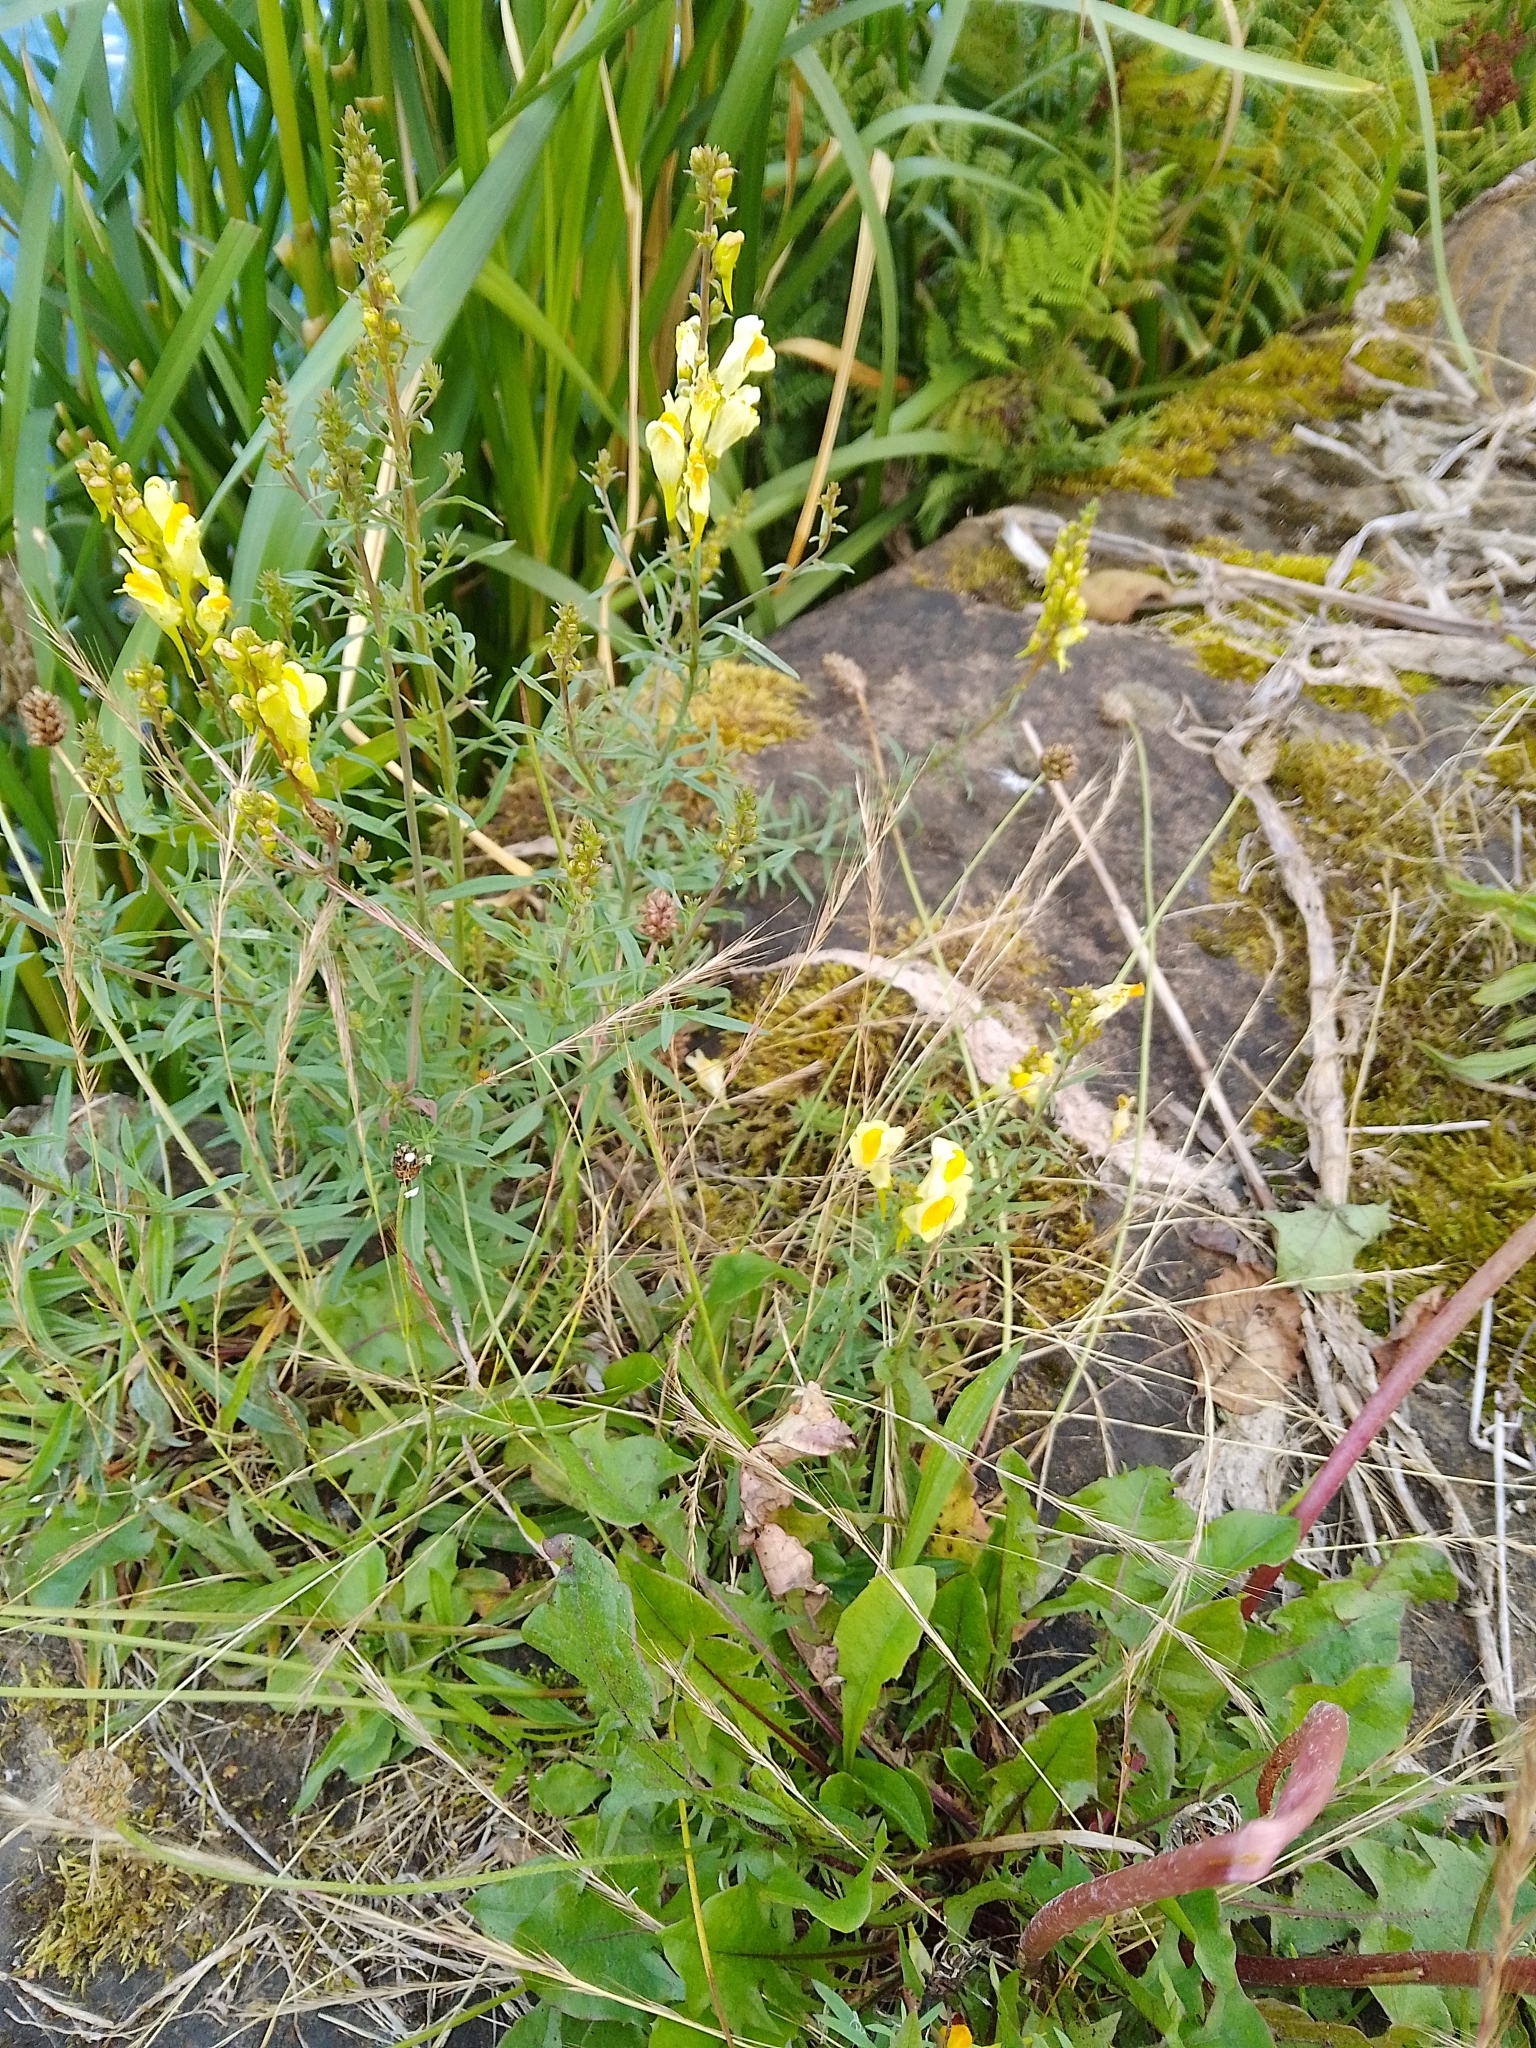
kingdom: Plantae
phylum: Tracheophyta
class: Magnoliopsida
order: Lamiales
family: Plantaginaceae
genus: Linaria
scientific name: Linaria vulgaris
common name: Butter and eggs
